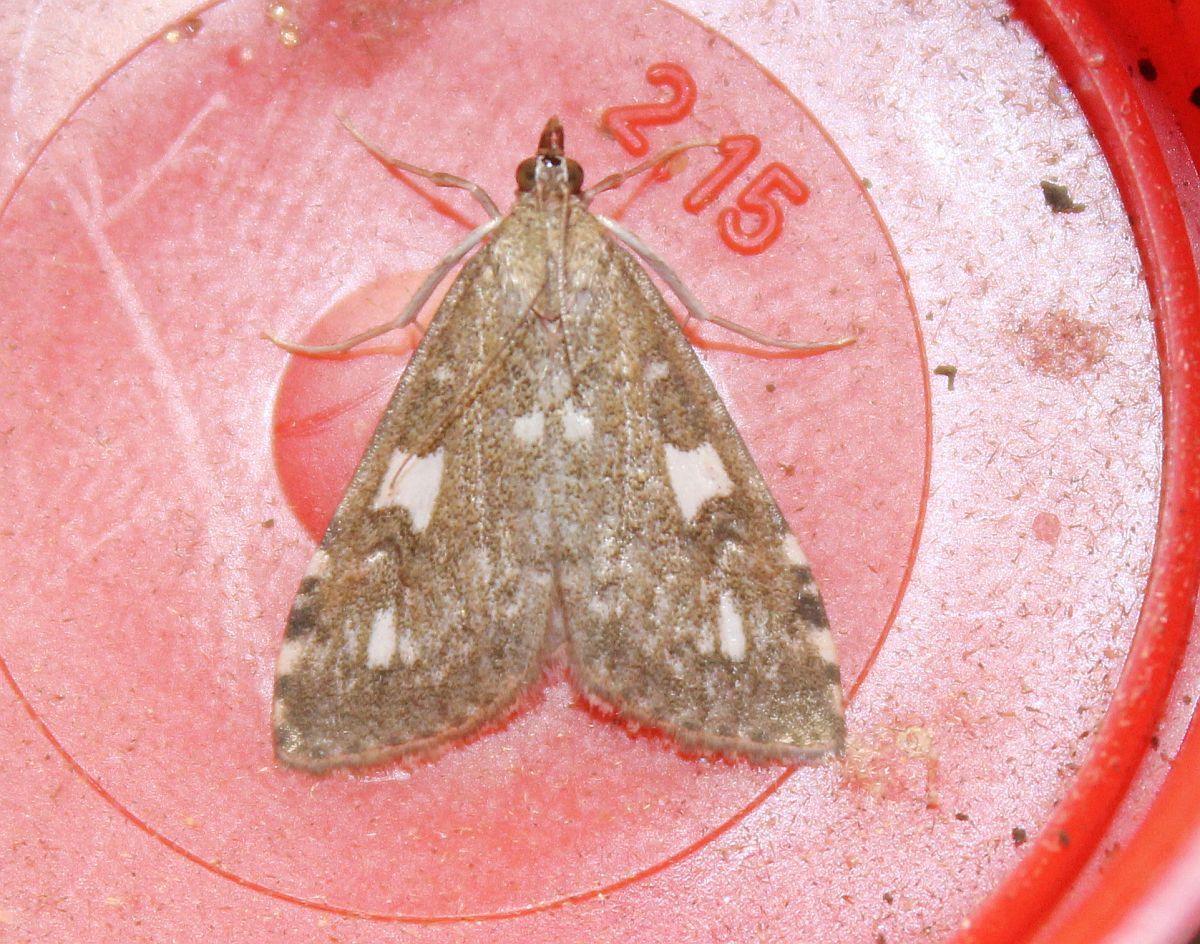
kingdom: Animalia
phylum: Arthropoda
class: Insecta
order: Lepidoptera
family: Crambidae
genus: Udea
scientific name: Udea olivalis
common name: Olive pearl
